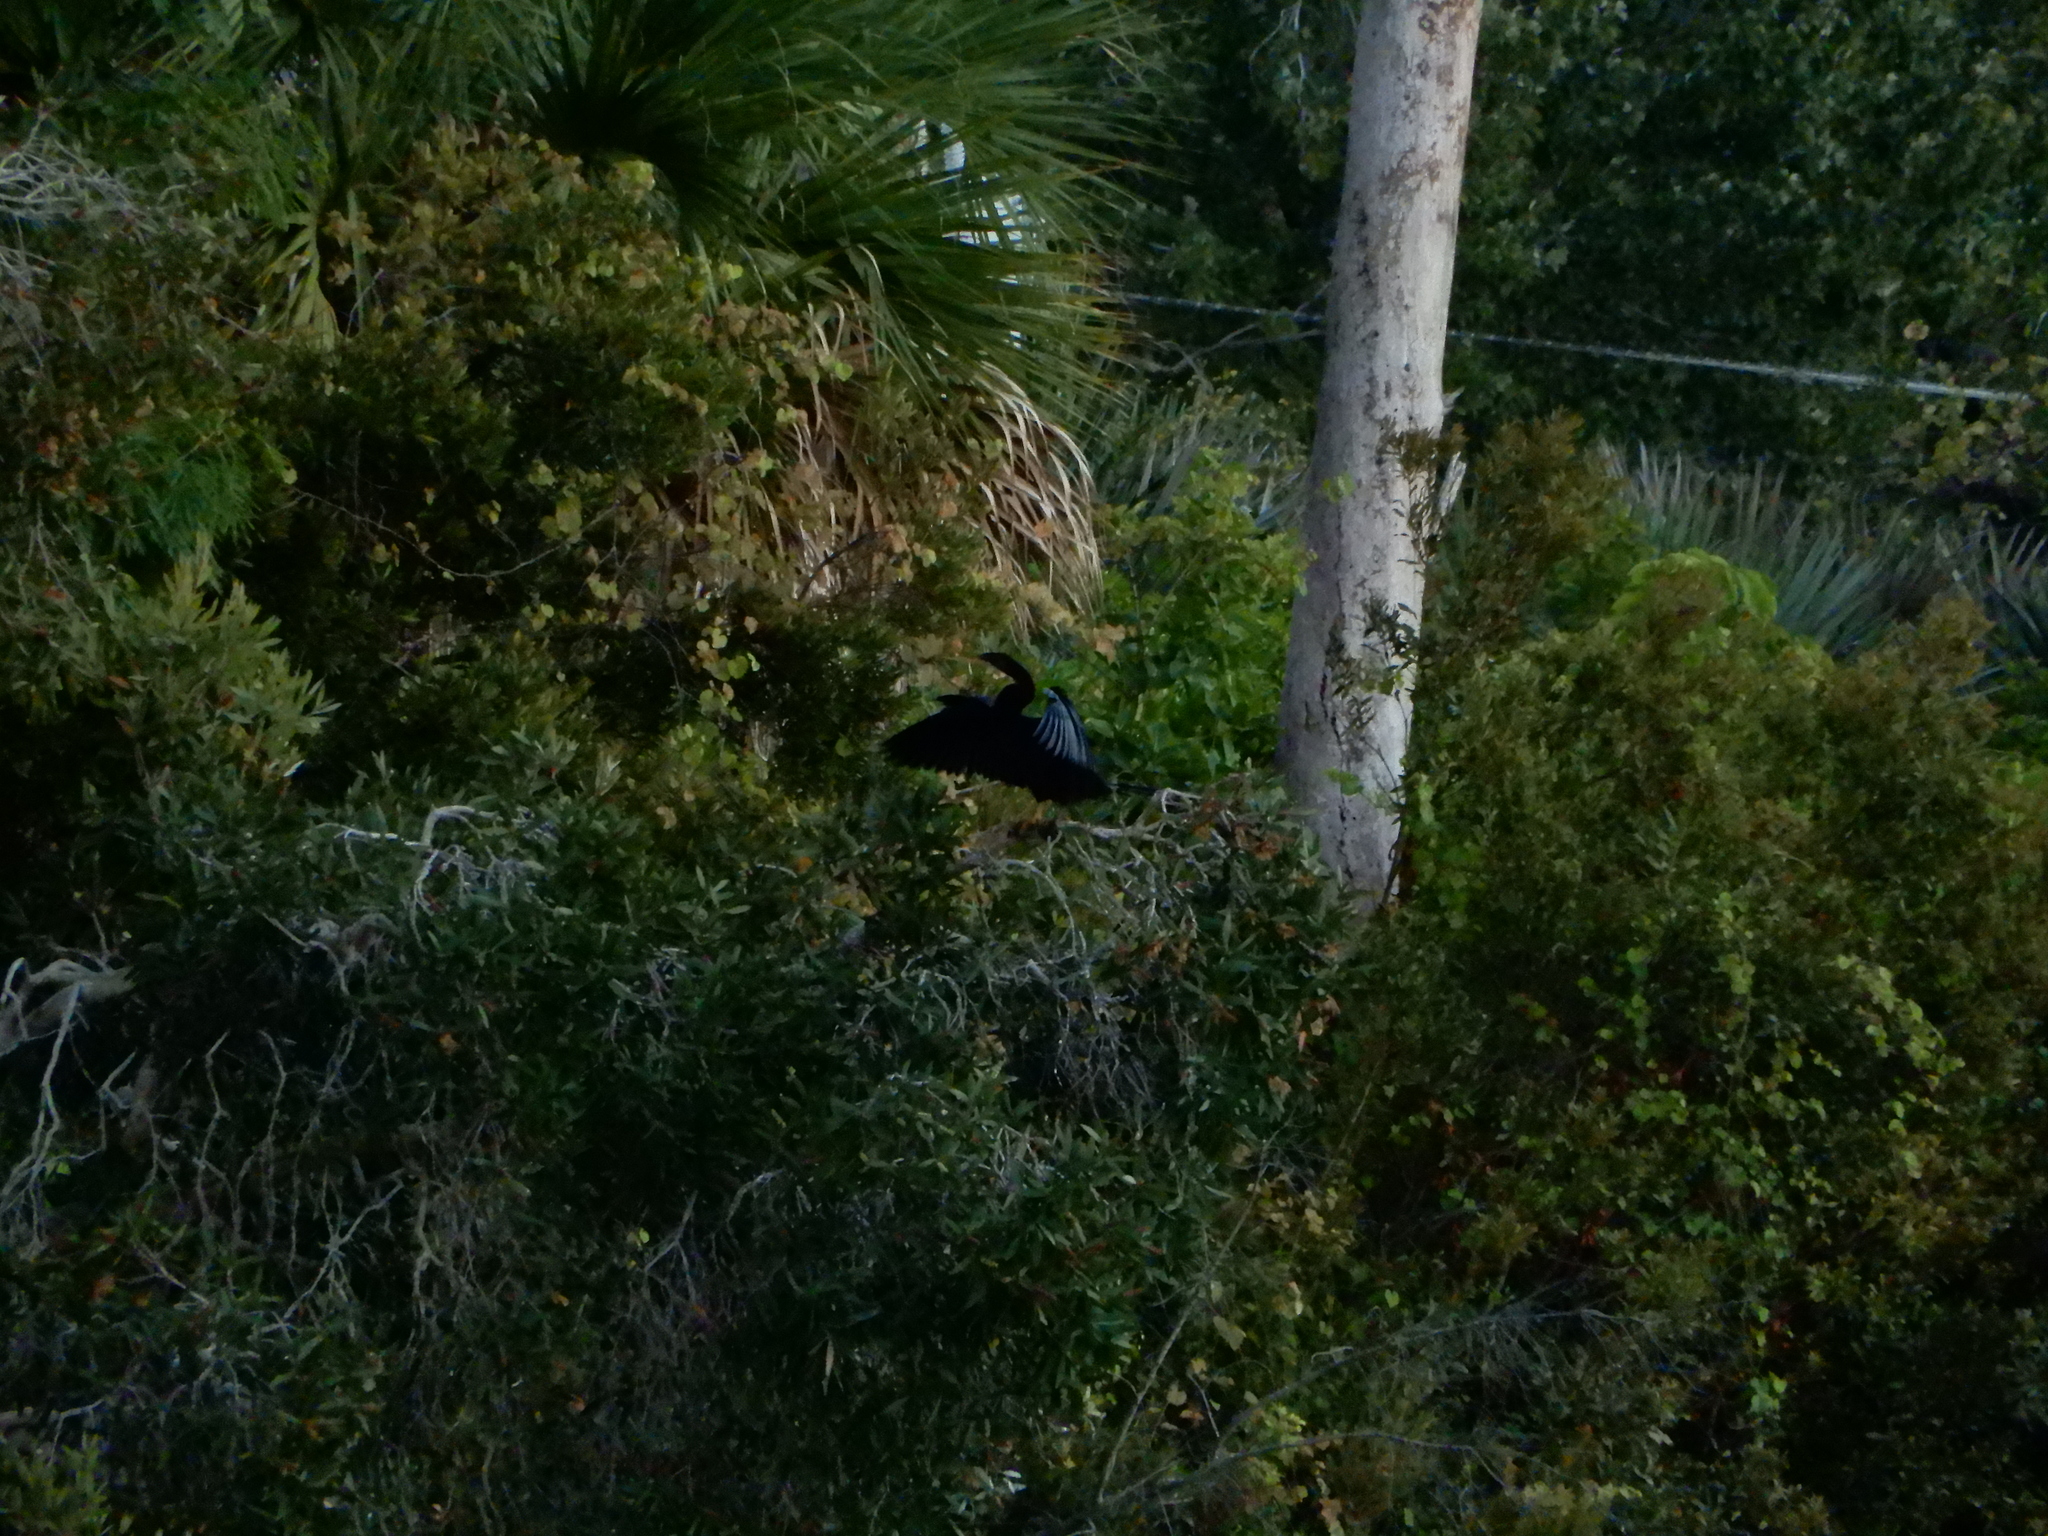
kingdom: Animalia
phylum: Chordata
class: Aves
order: Suliformes
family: Anhingidae
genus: Anhinga
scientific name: Anhinga anhinga
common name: Anhinga
